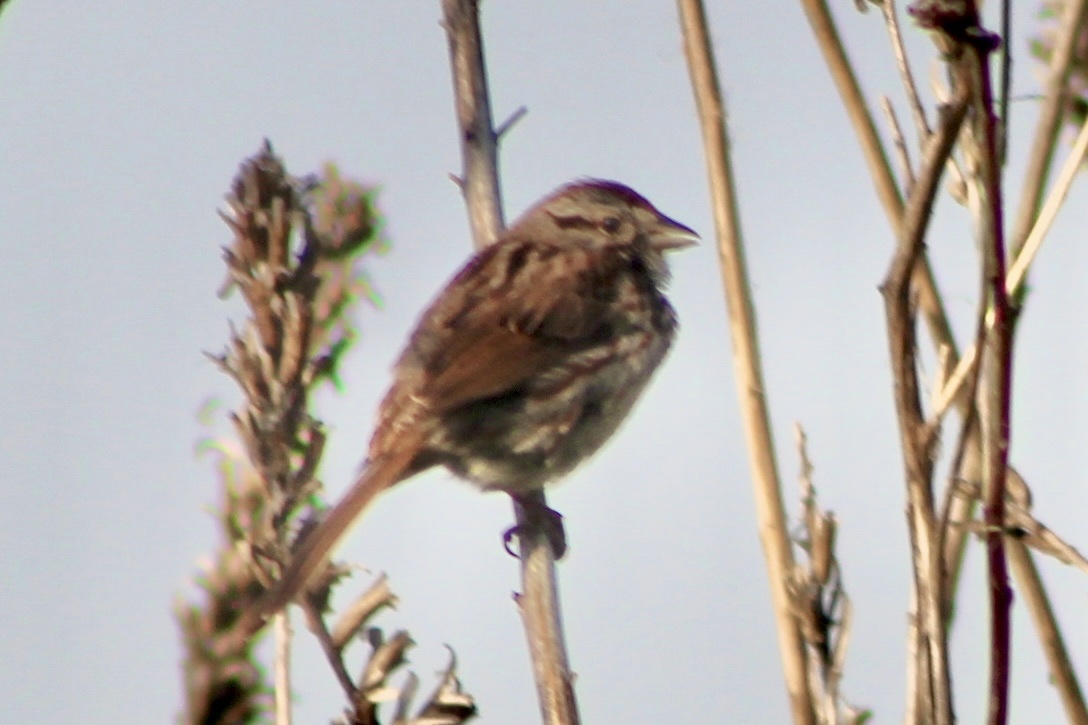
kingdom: Animalia
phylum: Chordata
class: Aves
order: Passeriformes
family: Passerellidae
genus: Melospiza
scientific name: Melospiza melodia
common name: Song sparrow
